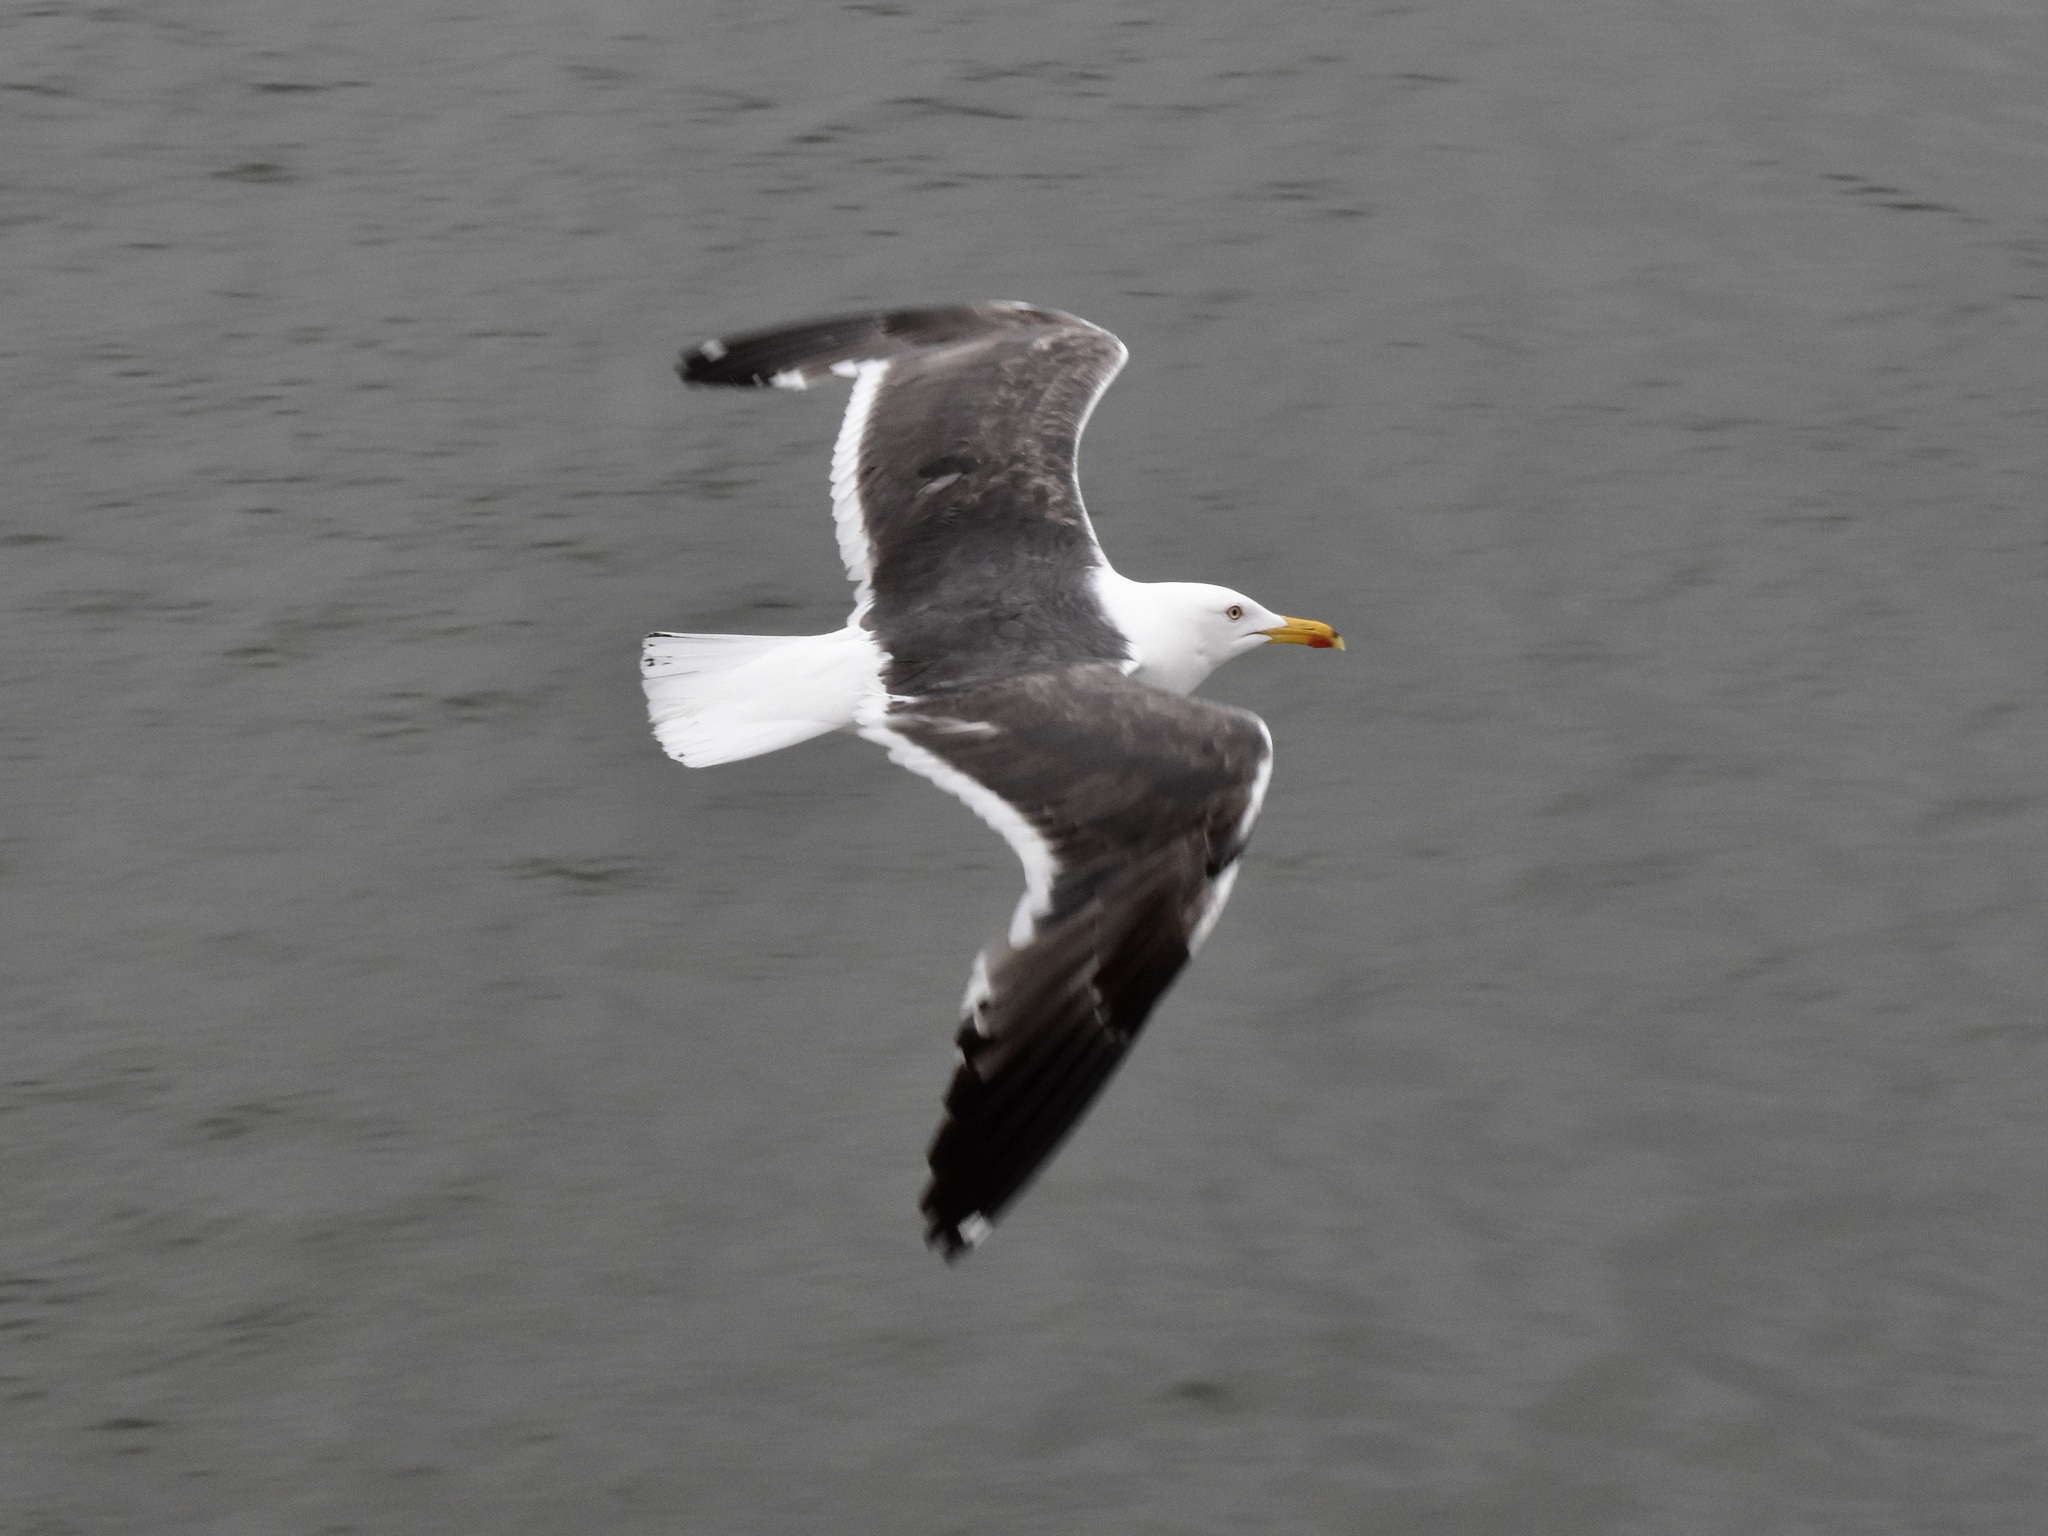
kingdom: Animalia
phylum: Chordata
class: Aves
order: Charadriiformes
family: Laridae
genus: Larus
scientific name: Larus fuscus
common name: Lesser black-backed gull
